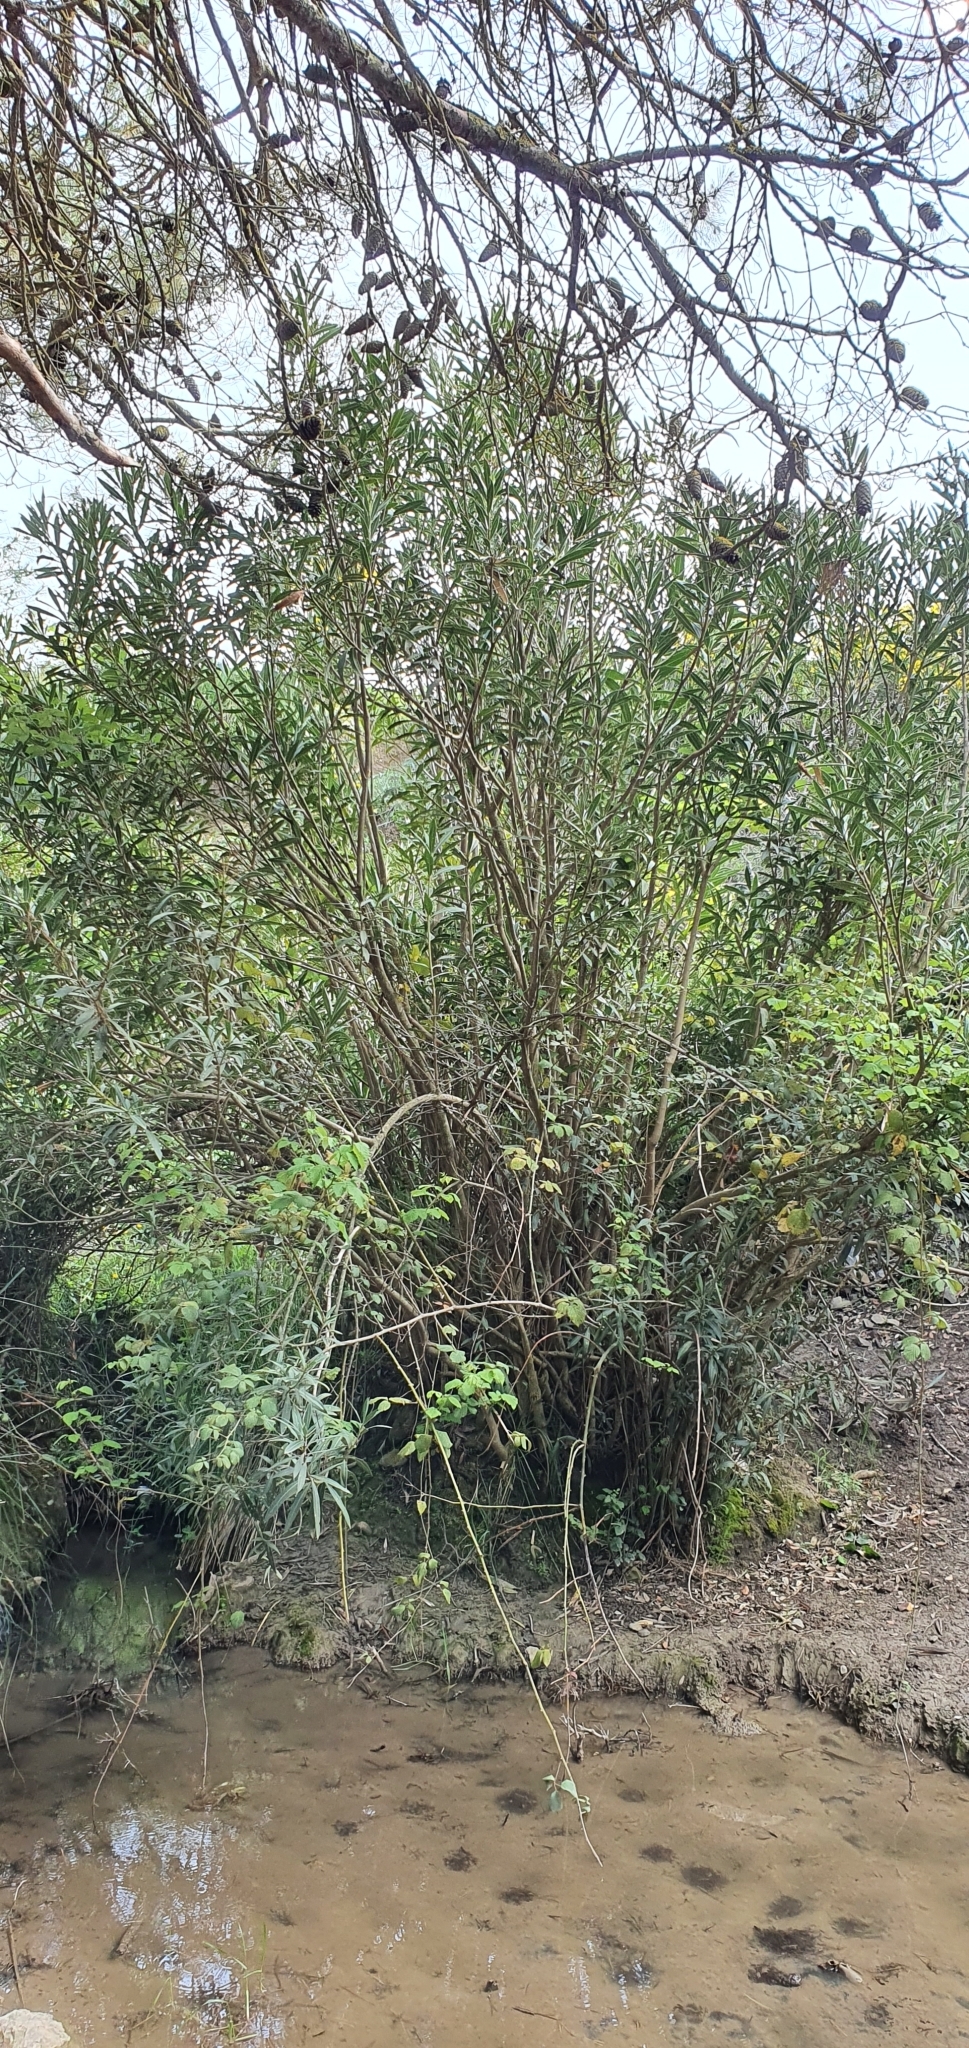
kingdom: Plantae
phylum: Tracheophyta
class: Magnoliopsida
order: Gentianales
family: Apocynaceae
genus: Nerium
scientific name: Nerium oleander
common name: Oleander
